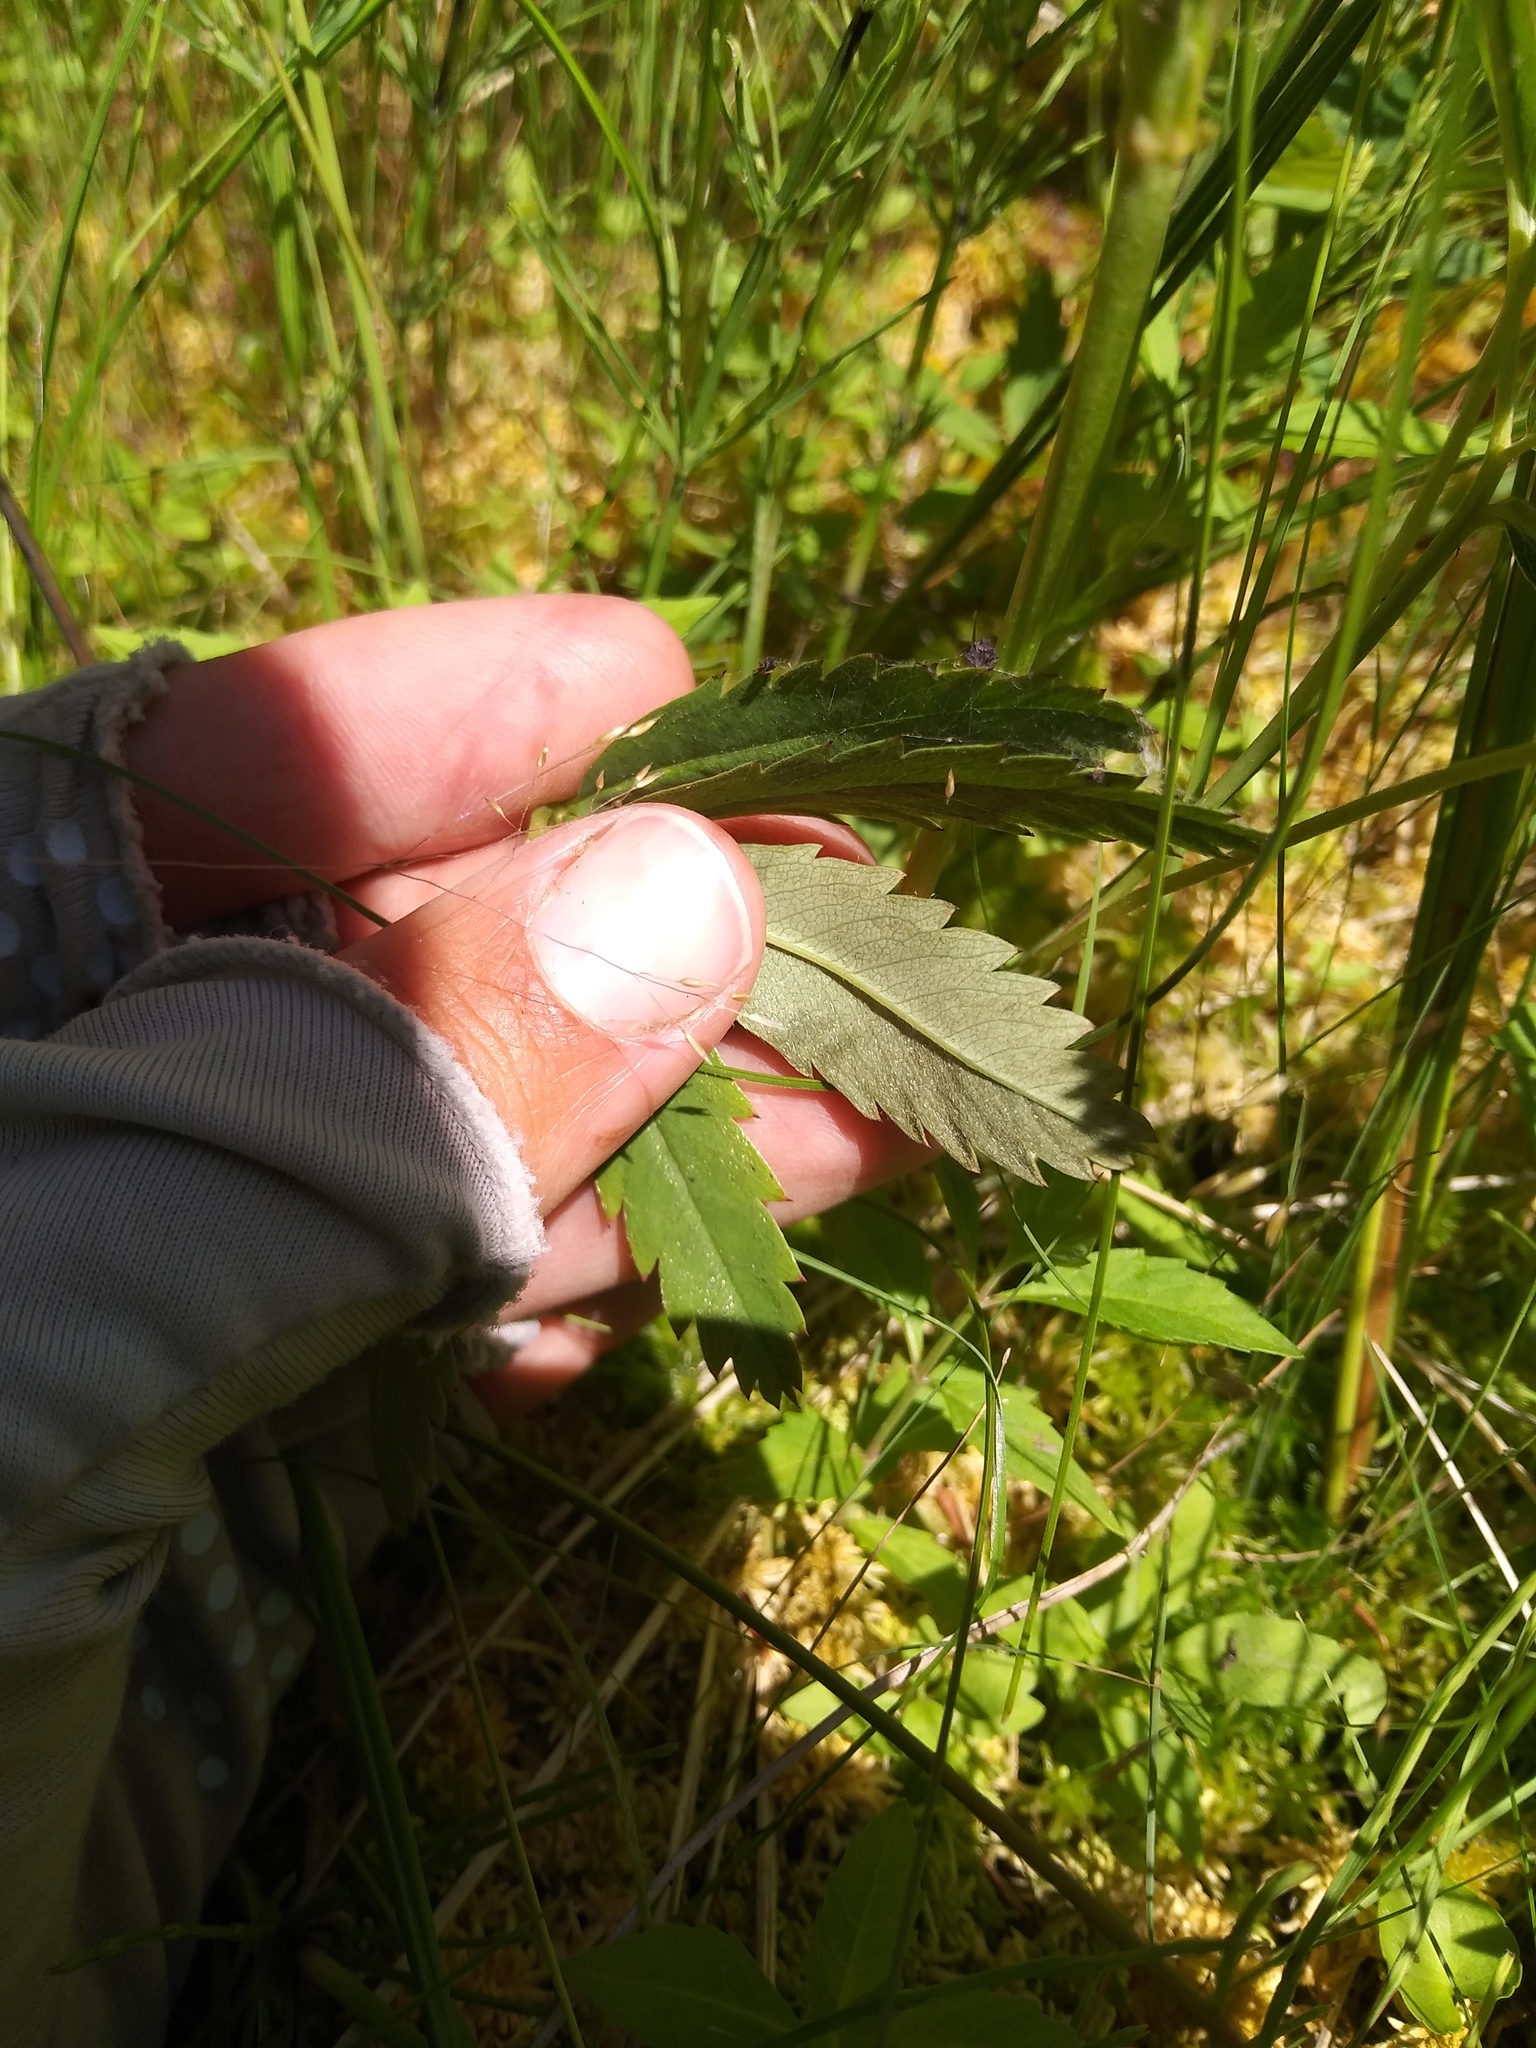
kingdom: Plantae
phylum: Tracheophyta
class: Magnoliopsida
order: Rosales
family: Rosaceae
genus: Comarum
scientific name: Comarum palustre
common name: Marsh cinquefoil
